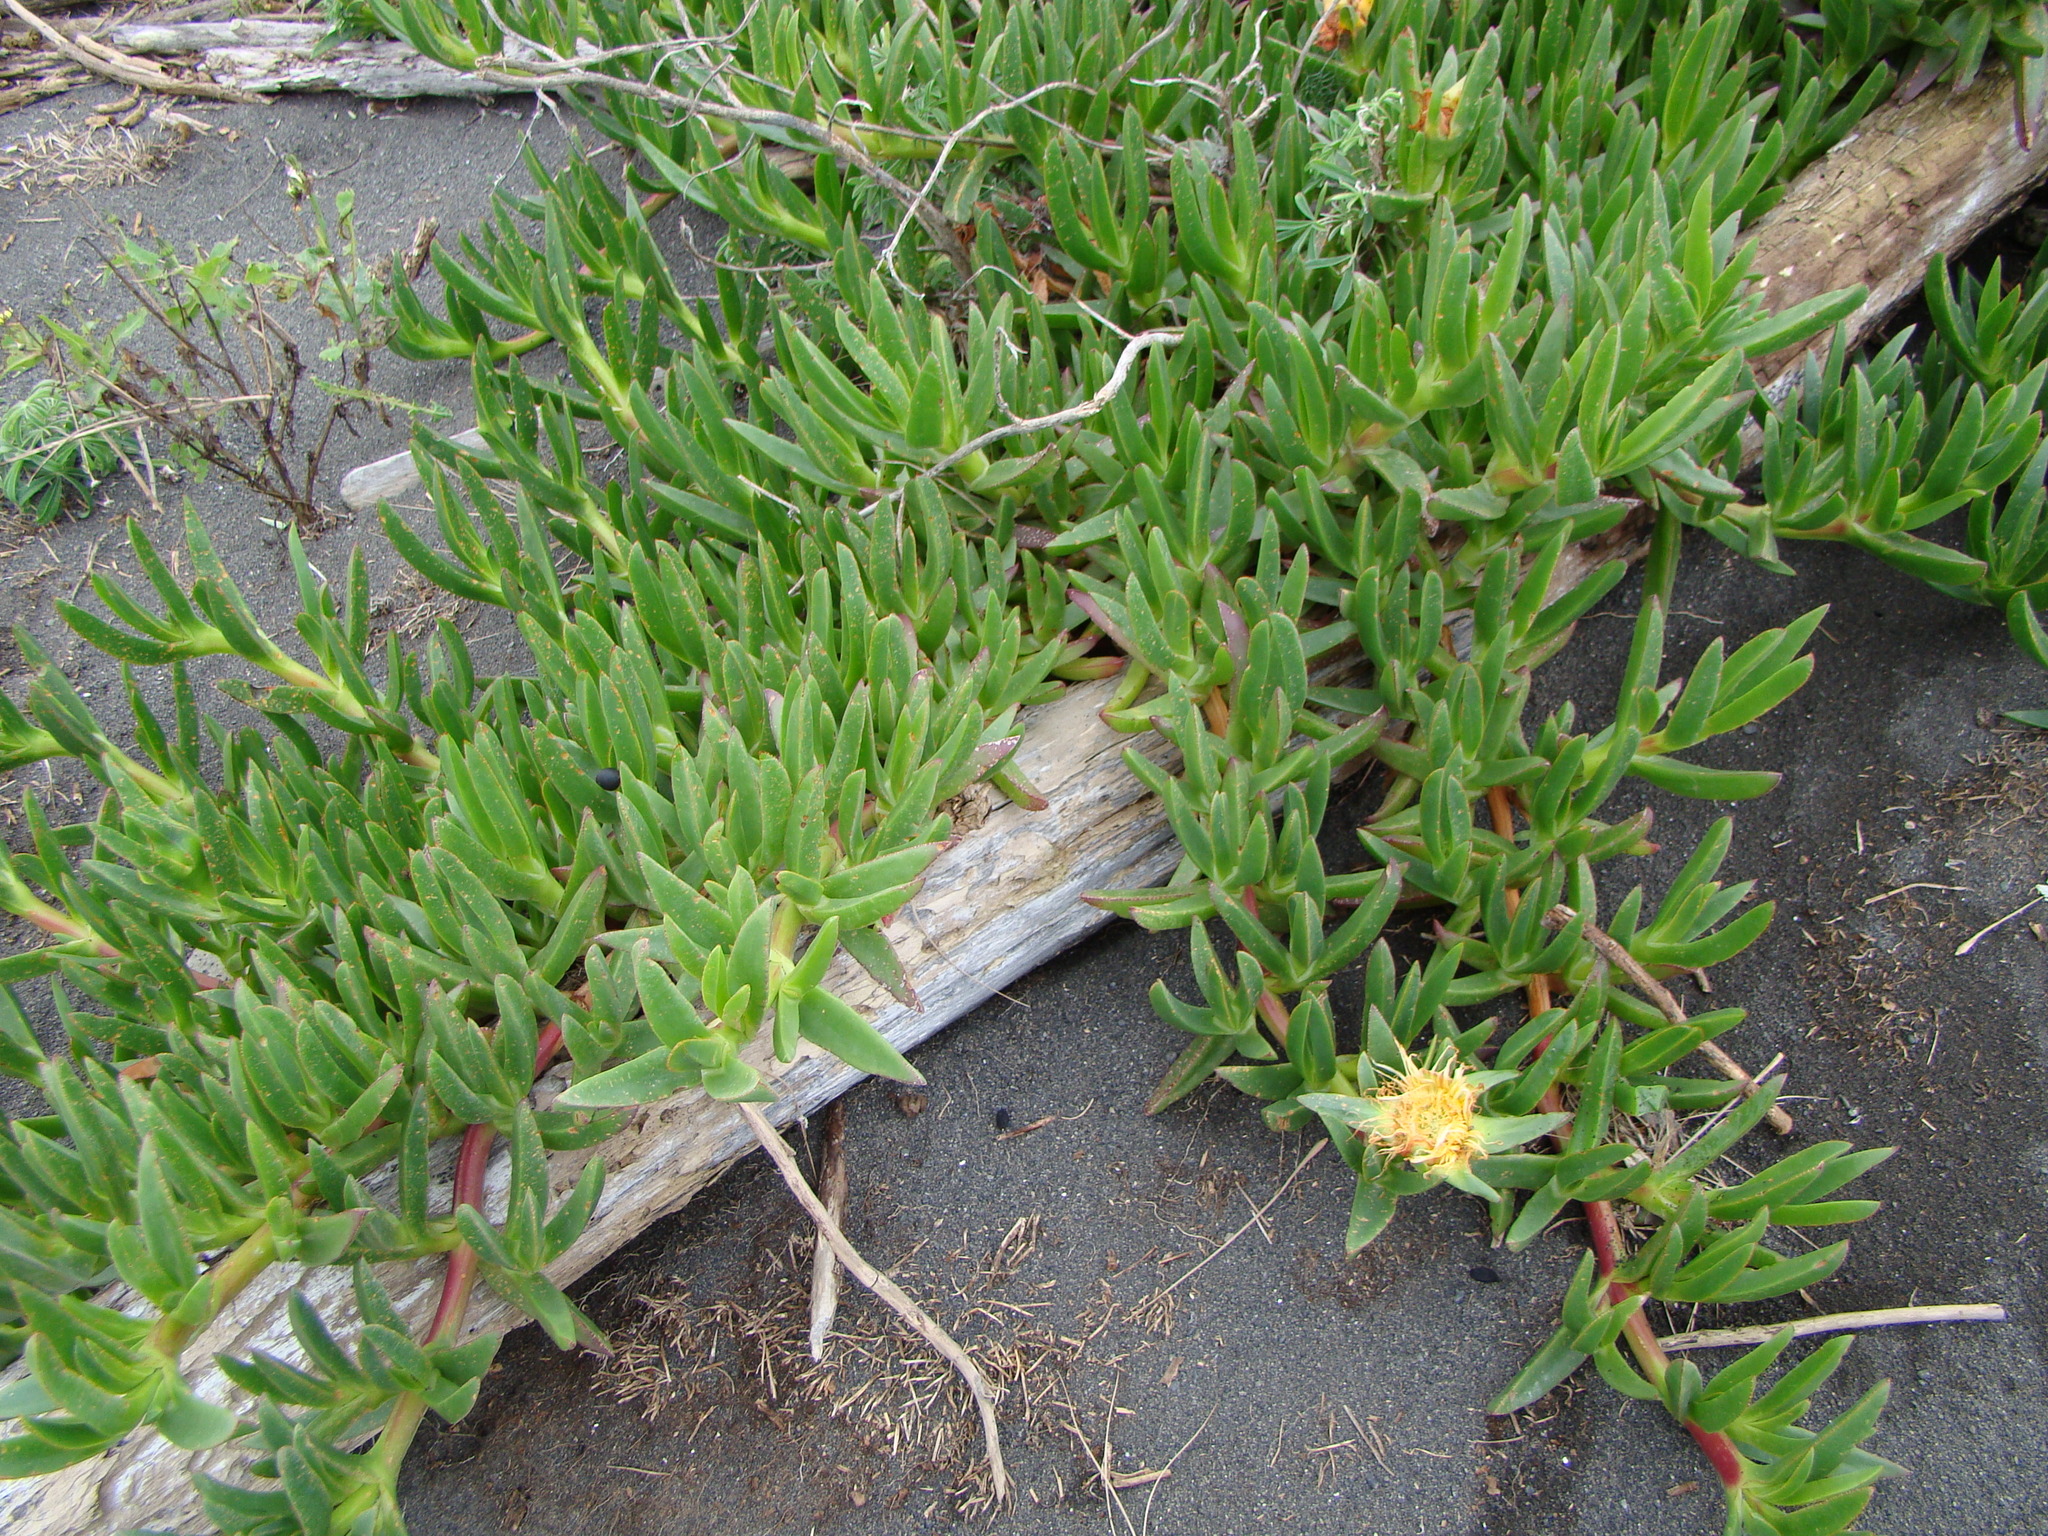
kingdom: Plantae
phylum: Tracheophyta
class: Magnoliopsida
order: Caryophyllales
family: Aizoaceae
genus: Carpobrotus
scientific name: Carpobrotus edulis
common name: Hottentot-fig
